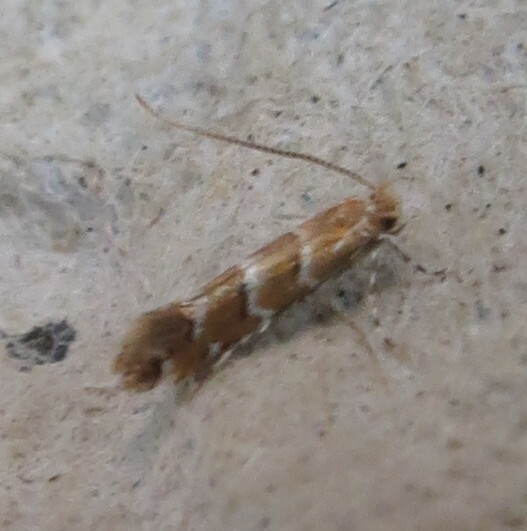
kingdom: Animalia
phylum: Arthropoda
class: Insecta
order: Lepidoptera
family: Gracillariidae
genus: Cameraria
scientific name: Cameraria ohridella
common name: Horse-chestnut leaf-miner
